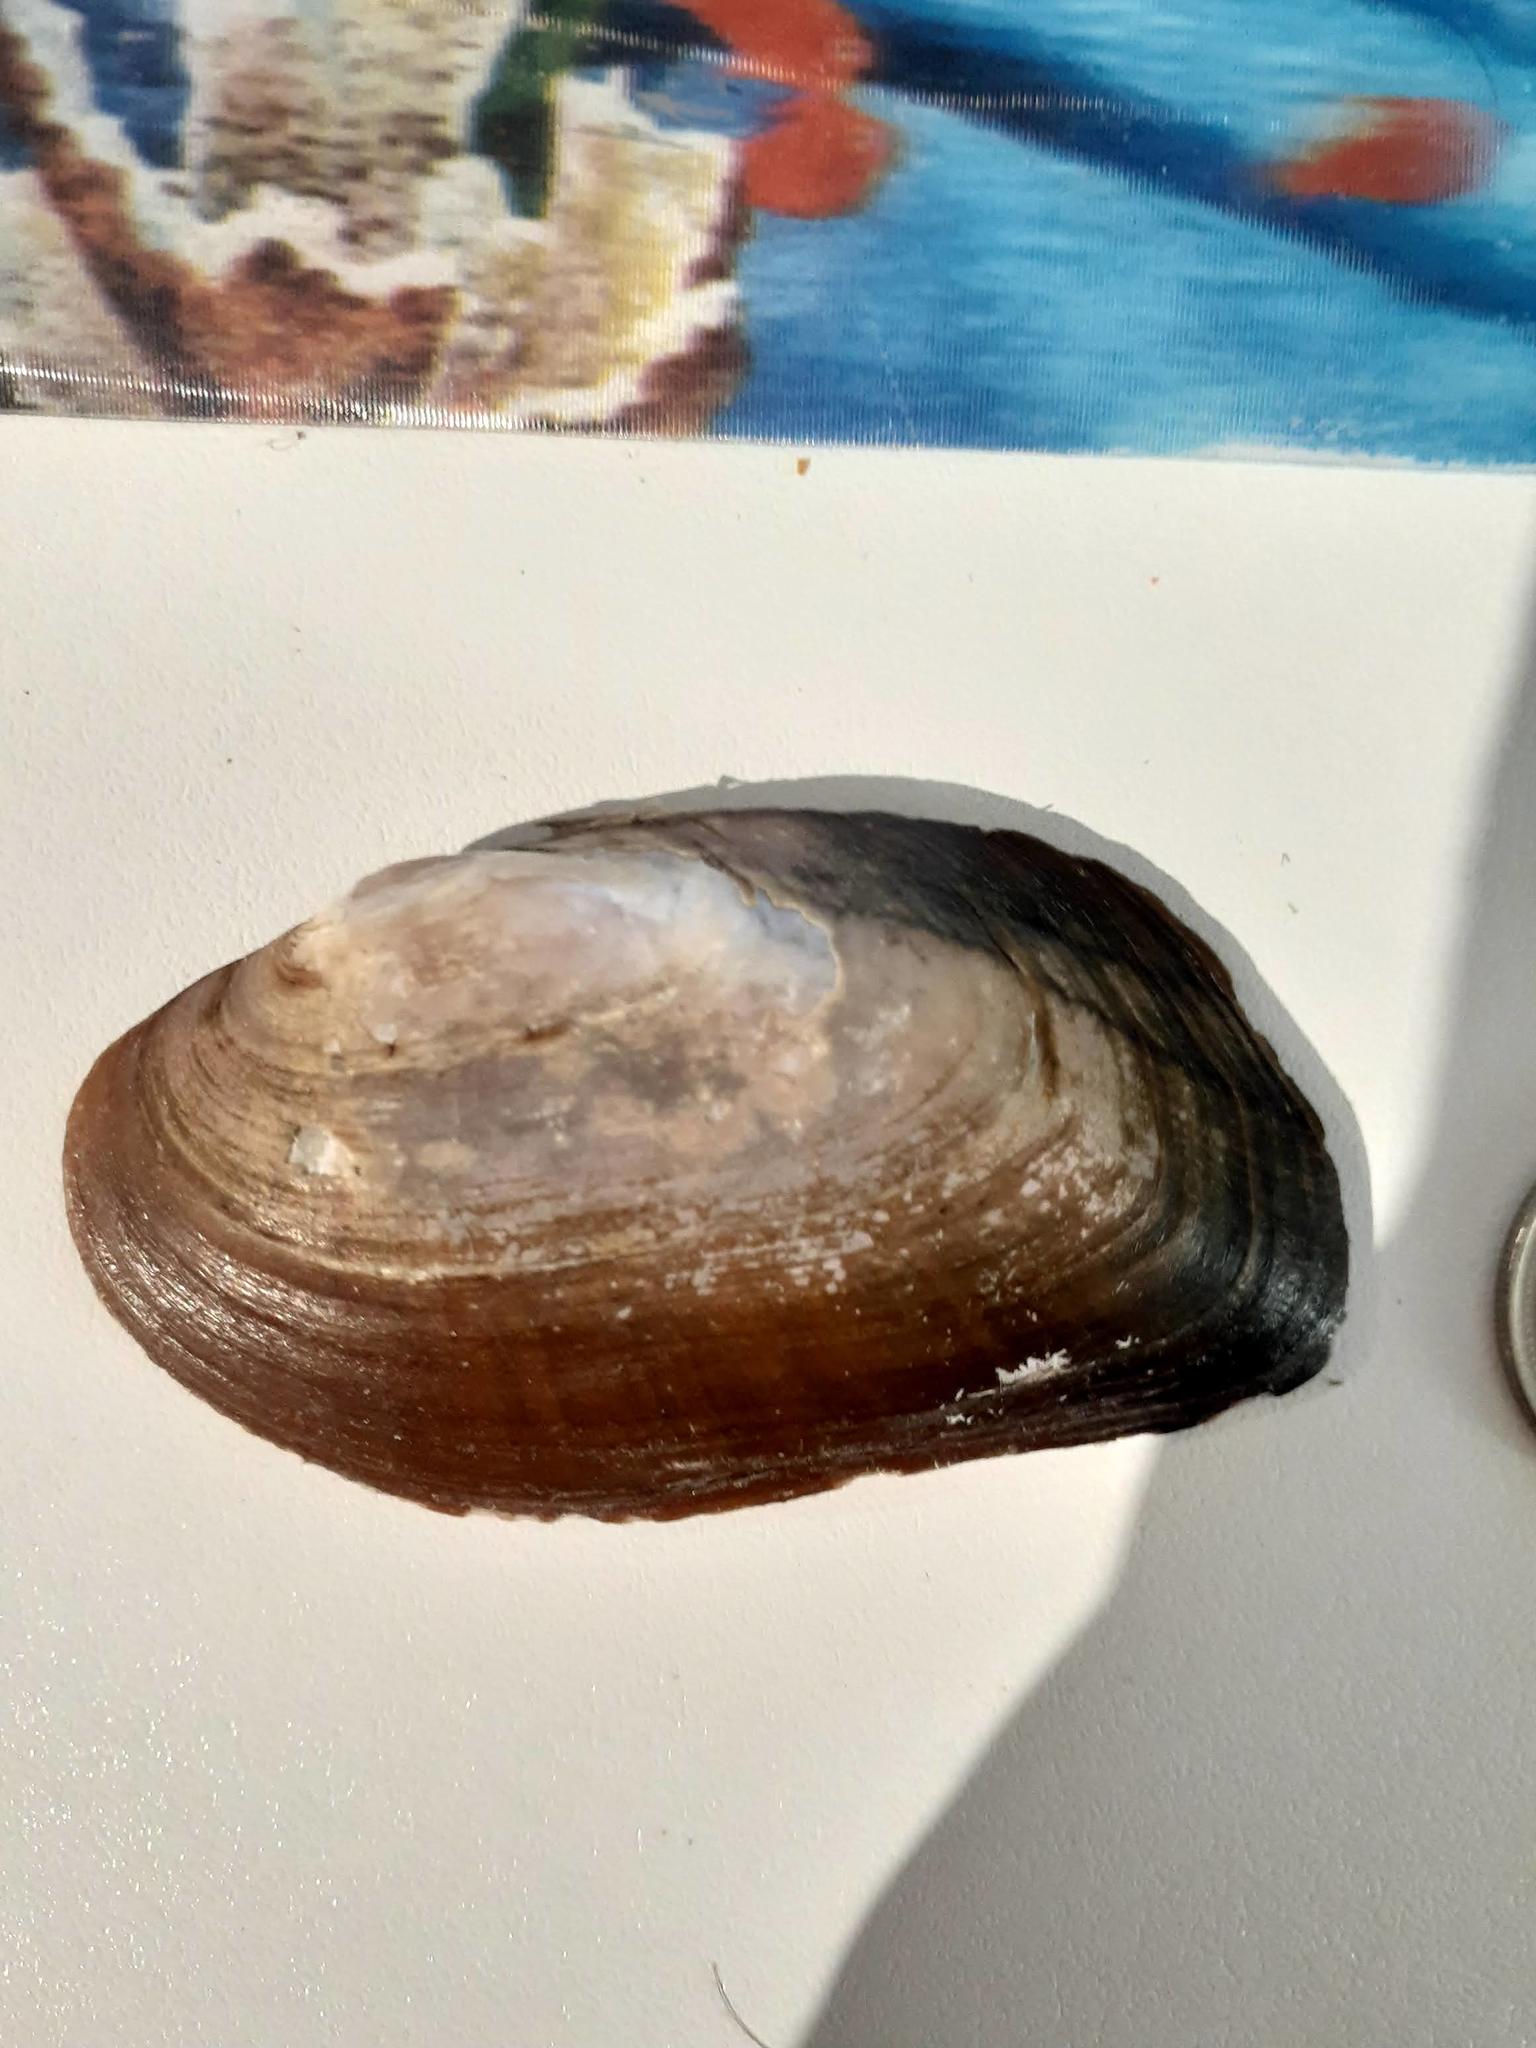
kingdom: Animalia
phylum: Mollusca
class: Bivalvia
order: Unionida
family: Unionidae
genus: Elliptio
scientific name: Elliptio complanata
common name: Eastern elliptio
